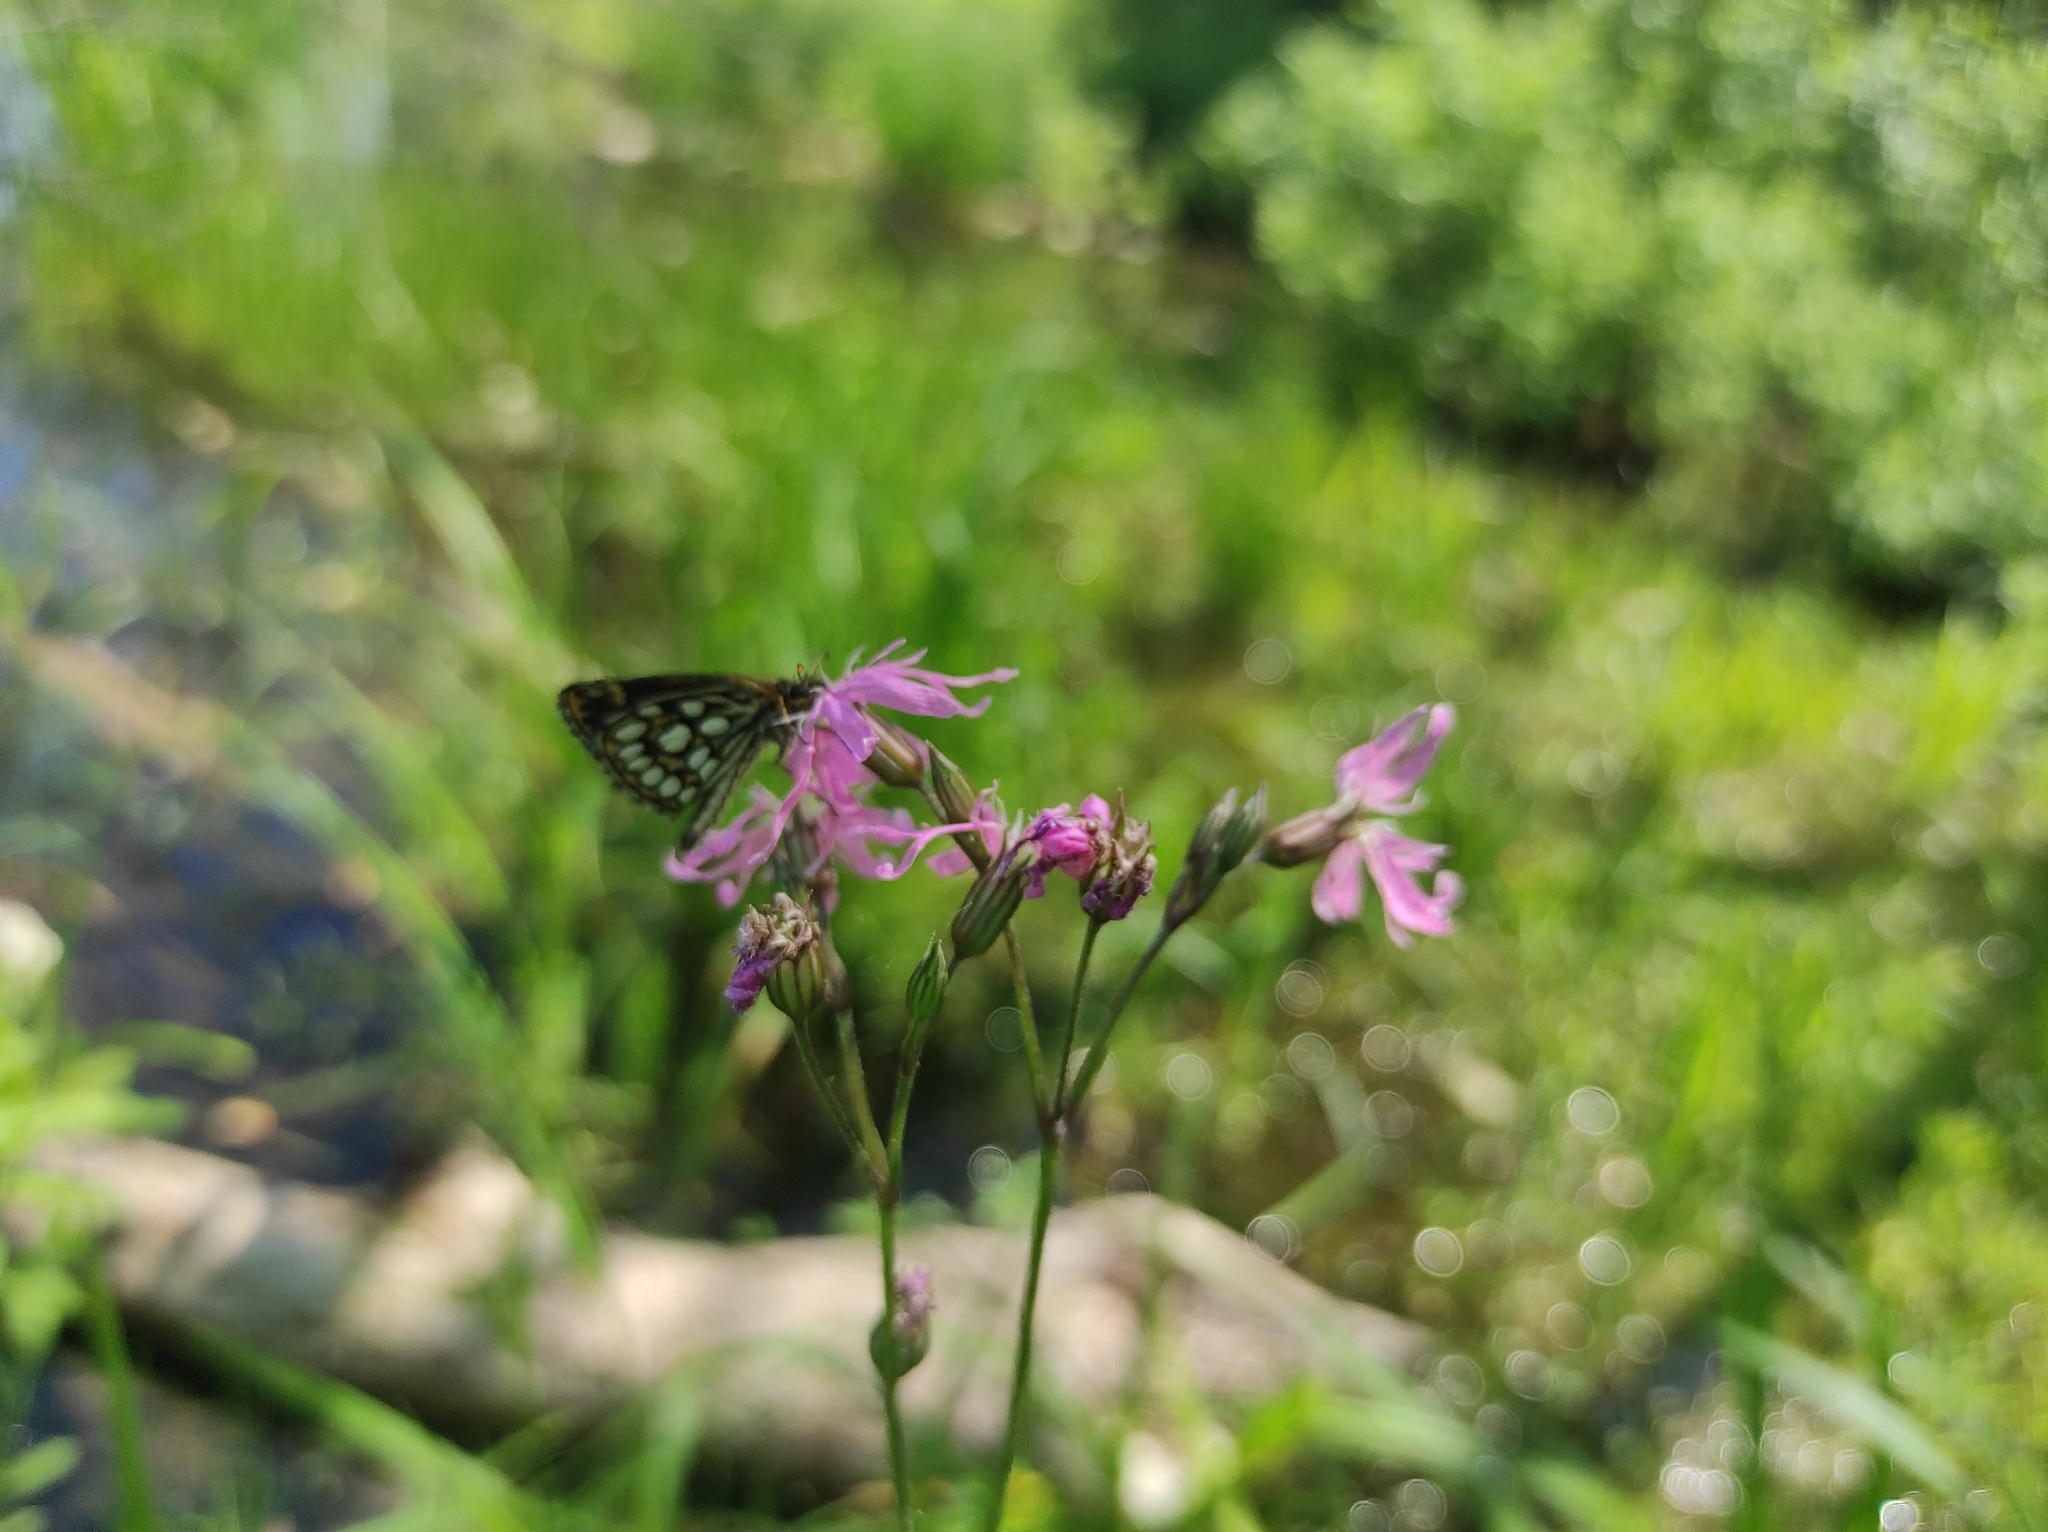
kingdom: Plantae
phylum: Tracheophyta
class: Magnoliopsida
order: Caryophyllales
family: Caryophyllaceae
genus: Silene
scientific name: Silene flos-cuculi
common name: Ragged-robin
